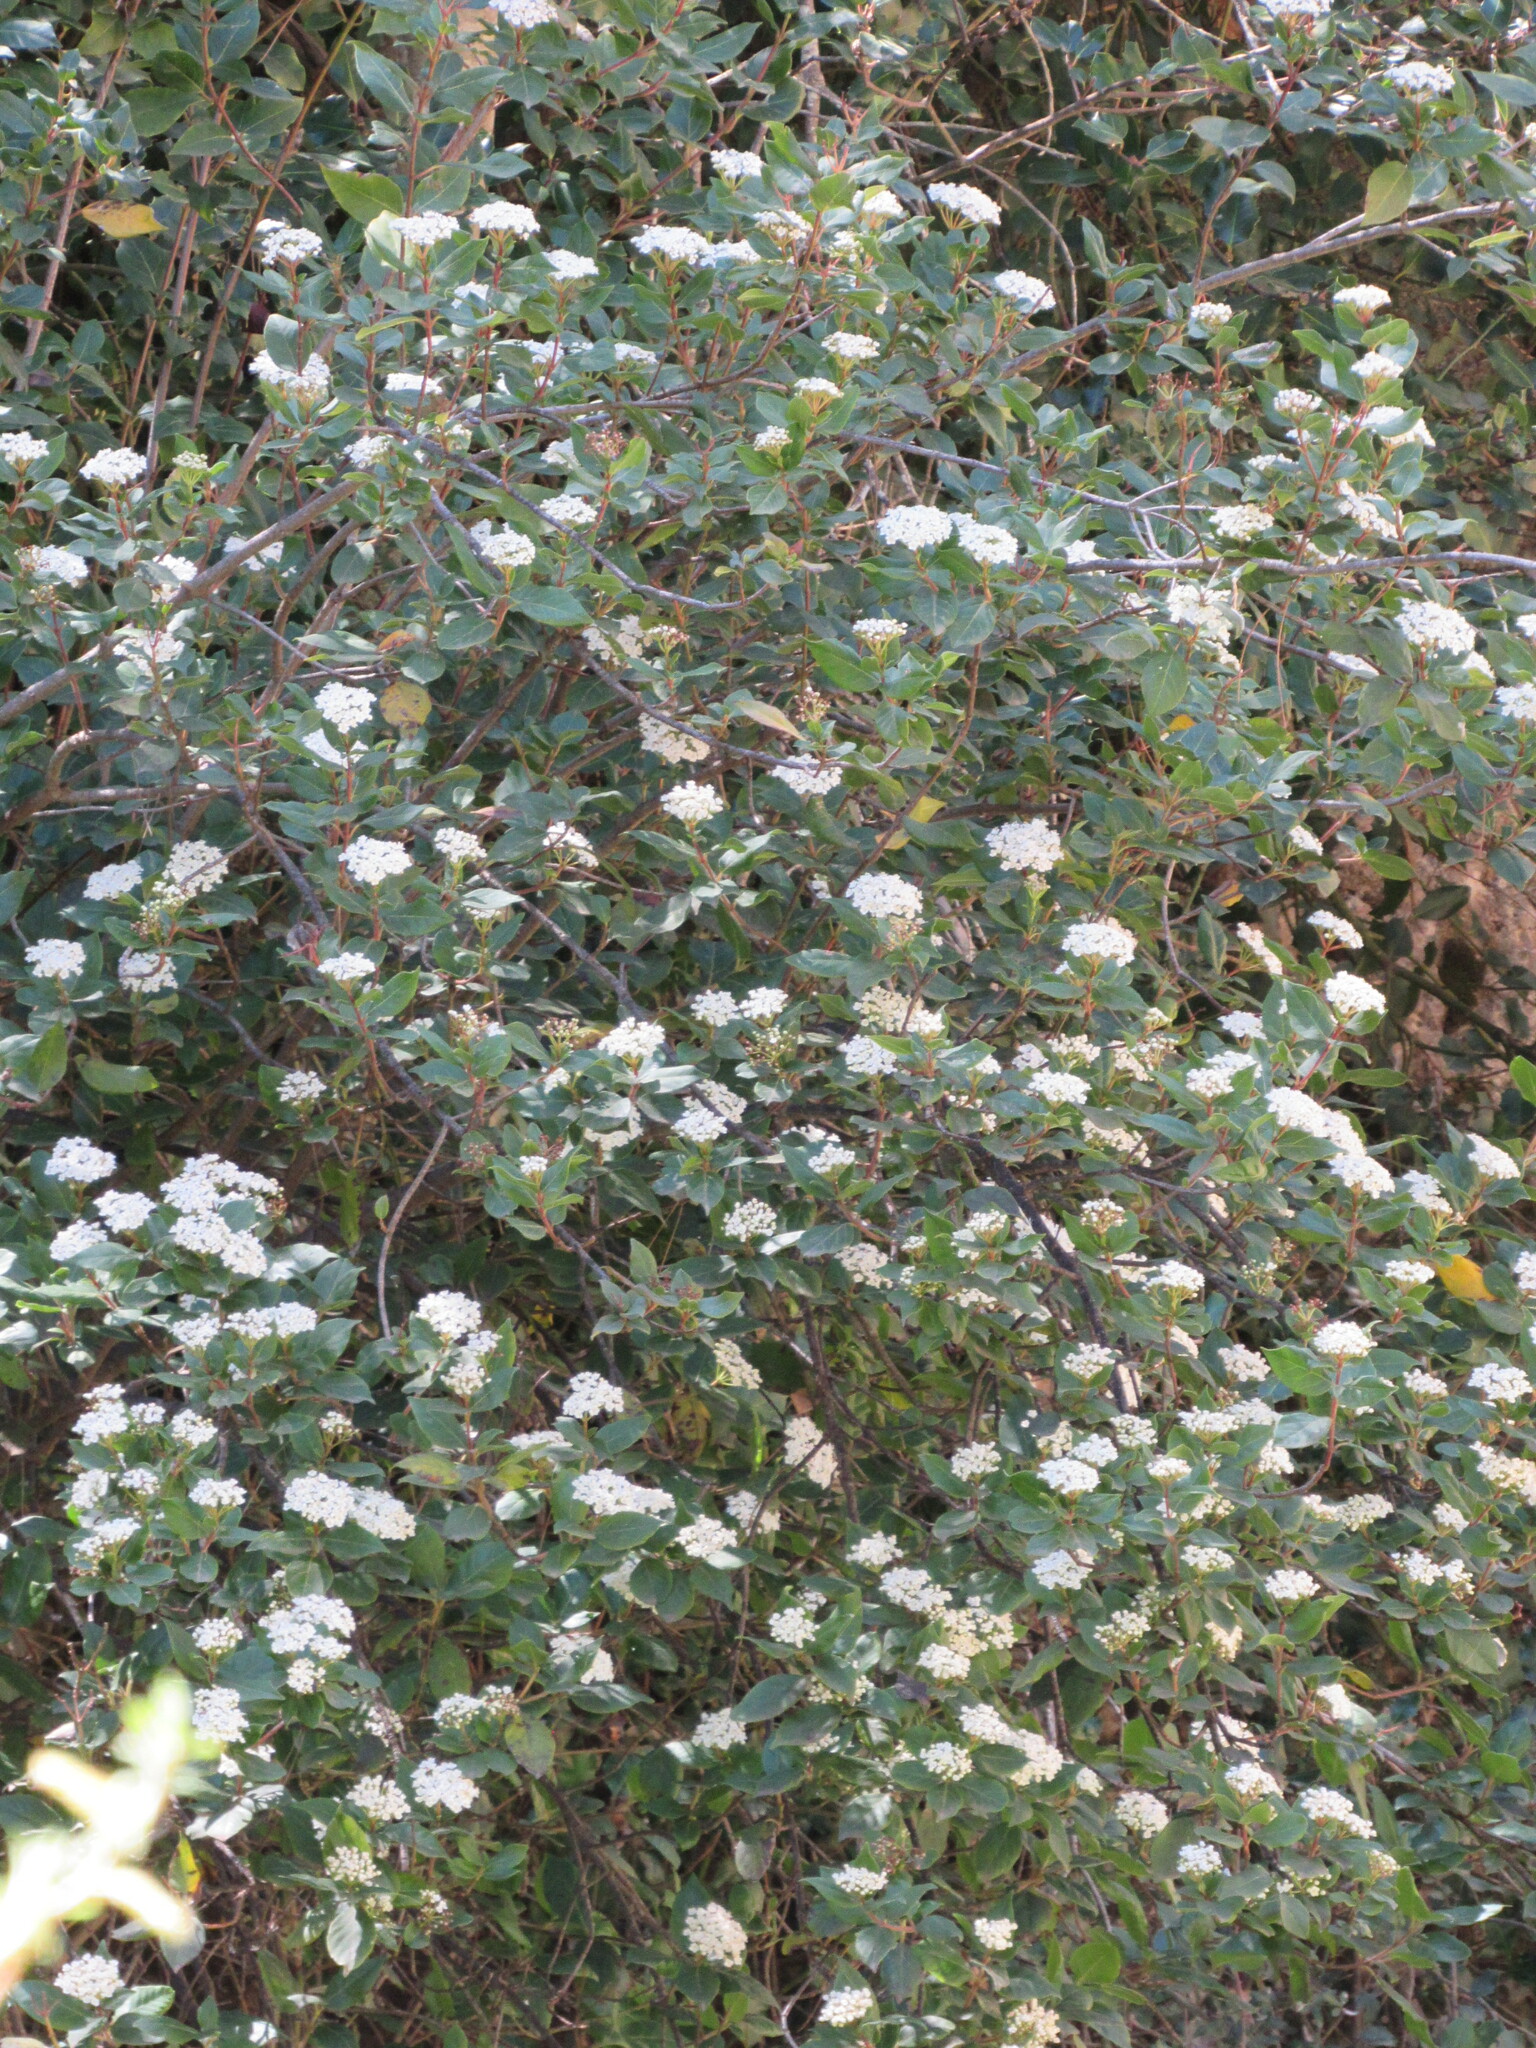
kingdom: Plantae
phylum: Tracheophyta
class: Magnoliopsida
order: Dipsacales
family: Viburnaceae
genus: Viburnum
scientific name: Viburnum tinus
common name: Laurustinus
